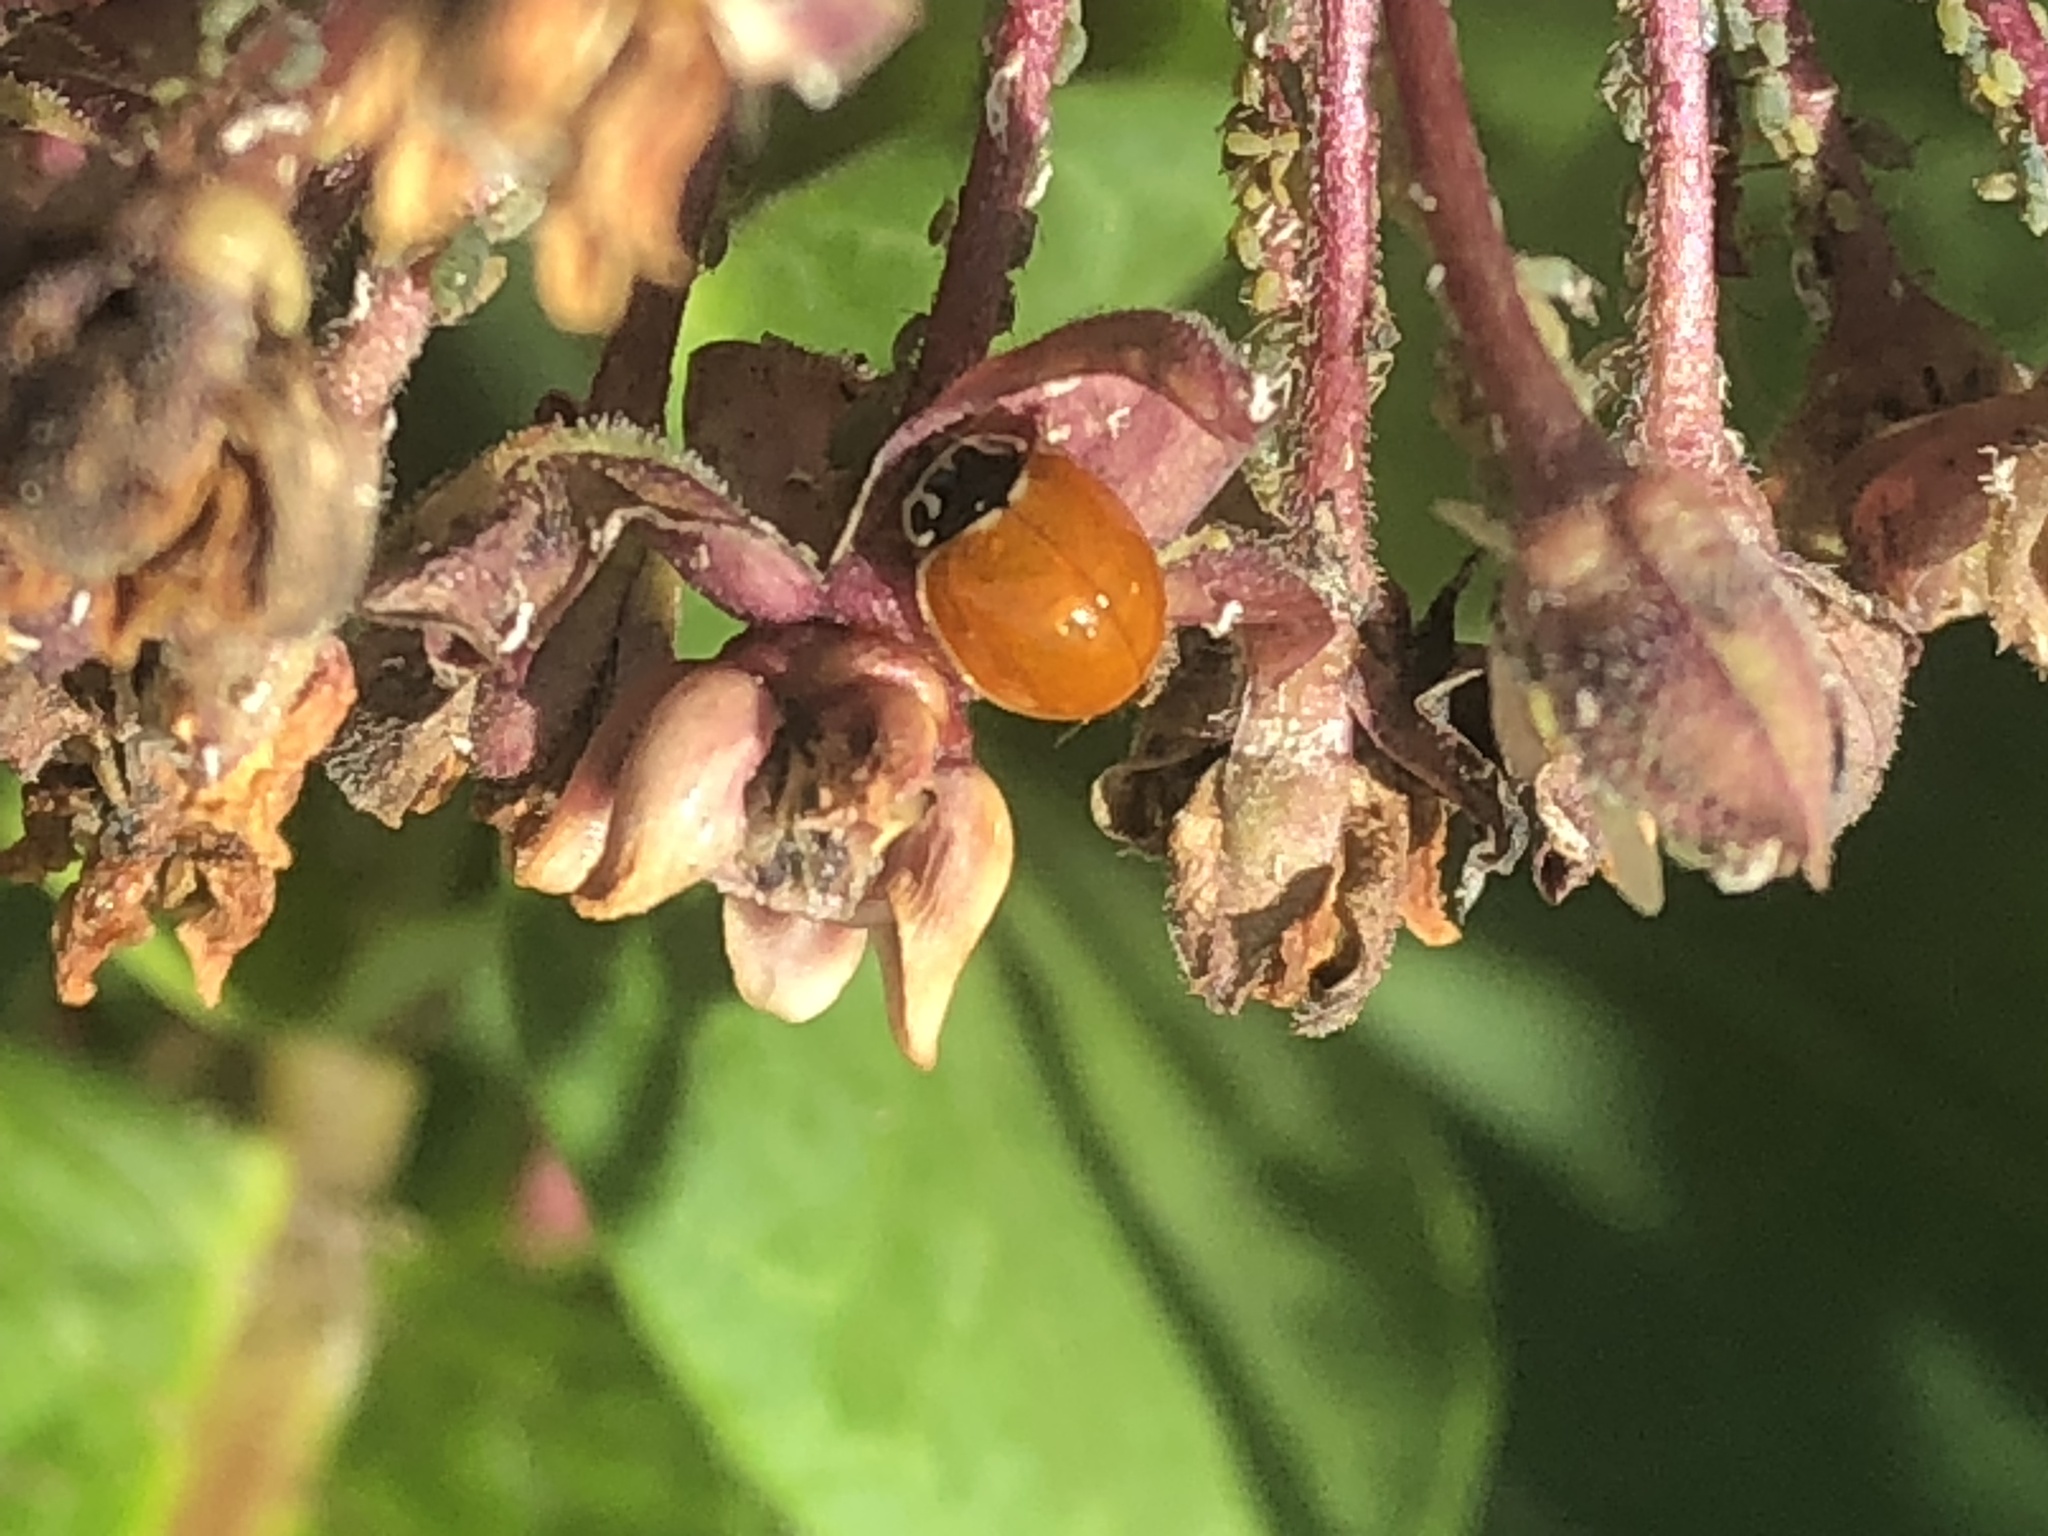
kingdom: Animalia
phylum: Arthropoda
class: Insecta
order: Coleoptera
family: Coccinellidae
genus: Cycloneda
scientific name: Cycloneda munda
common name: Polished lady beetle
